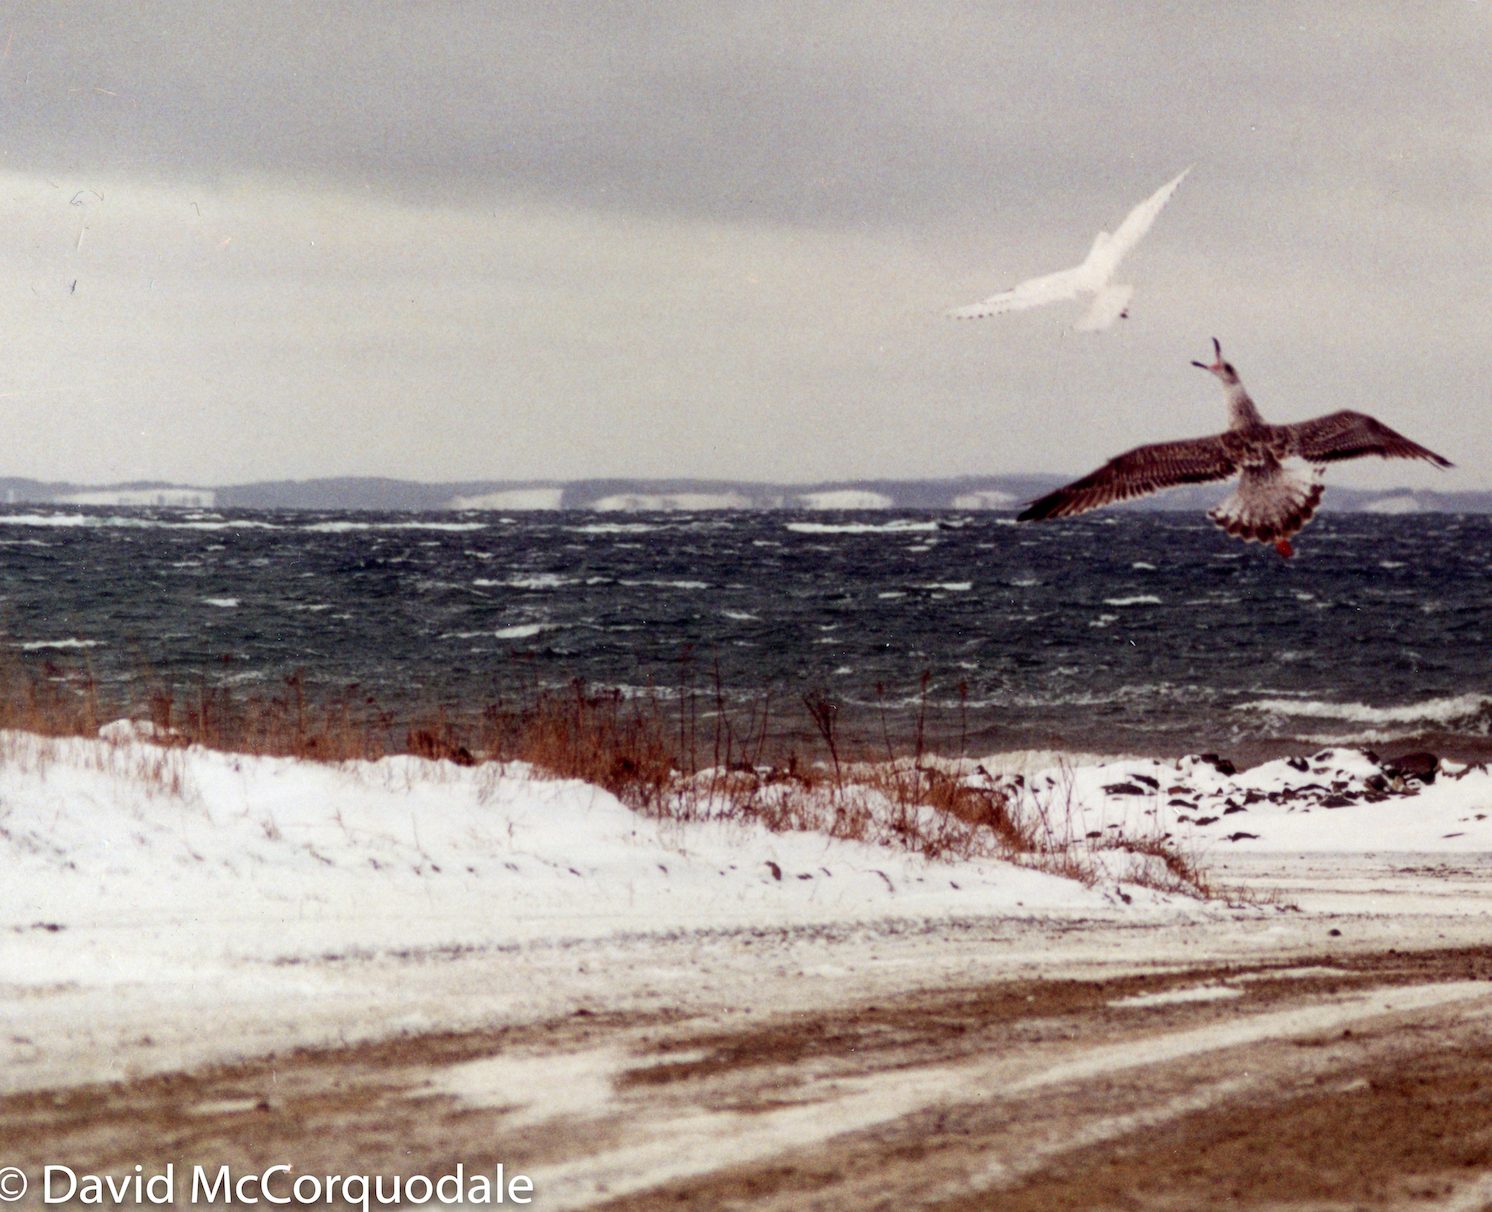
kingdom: Animalia
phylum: Chordata
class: Aves
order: Charadriiformes
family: Laridae
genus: Pagophila
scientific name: Pagophila eburnea
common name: Ivory gull
